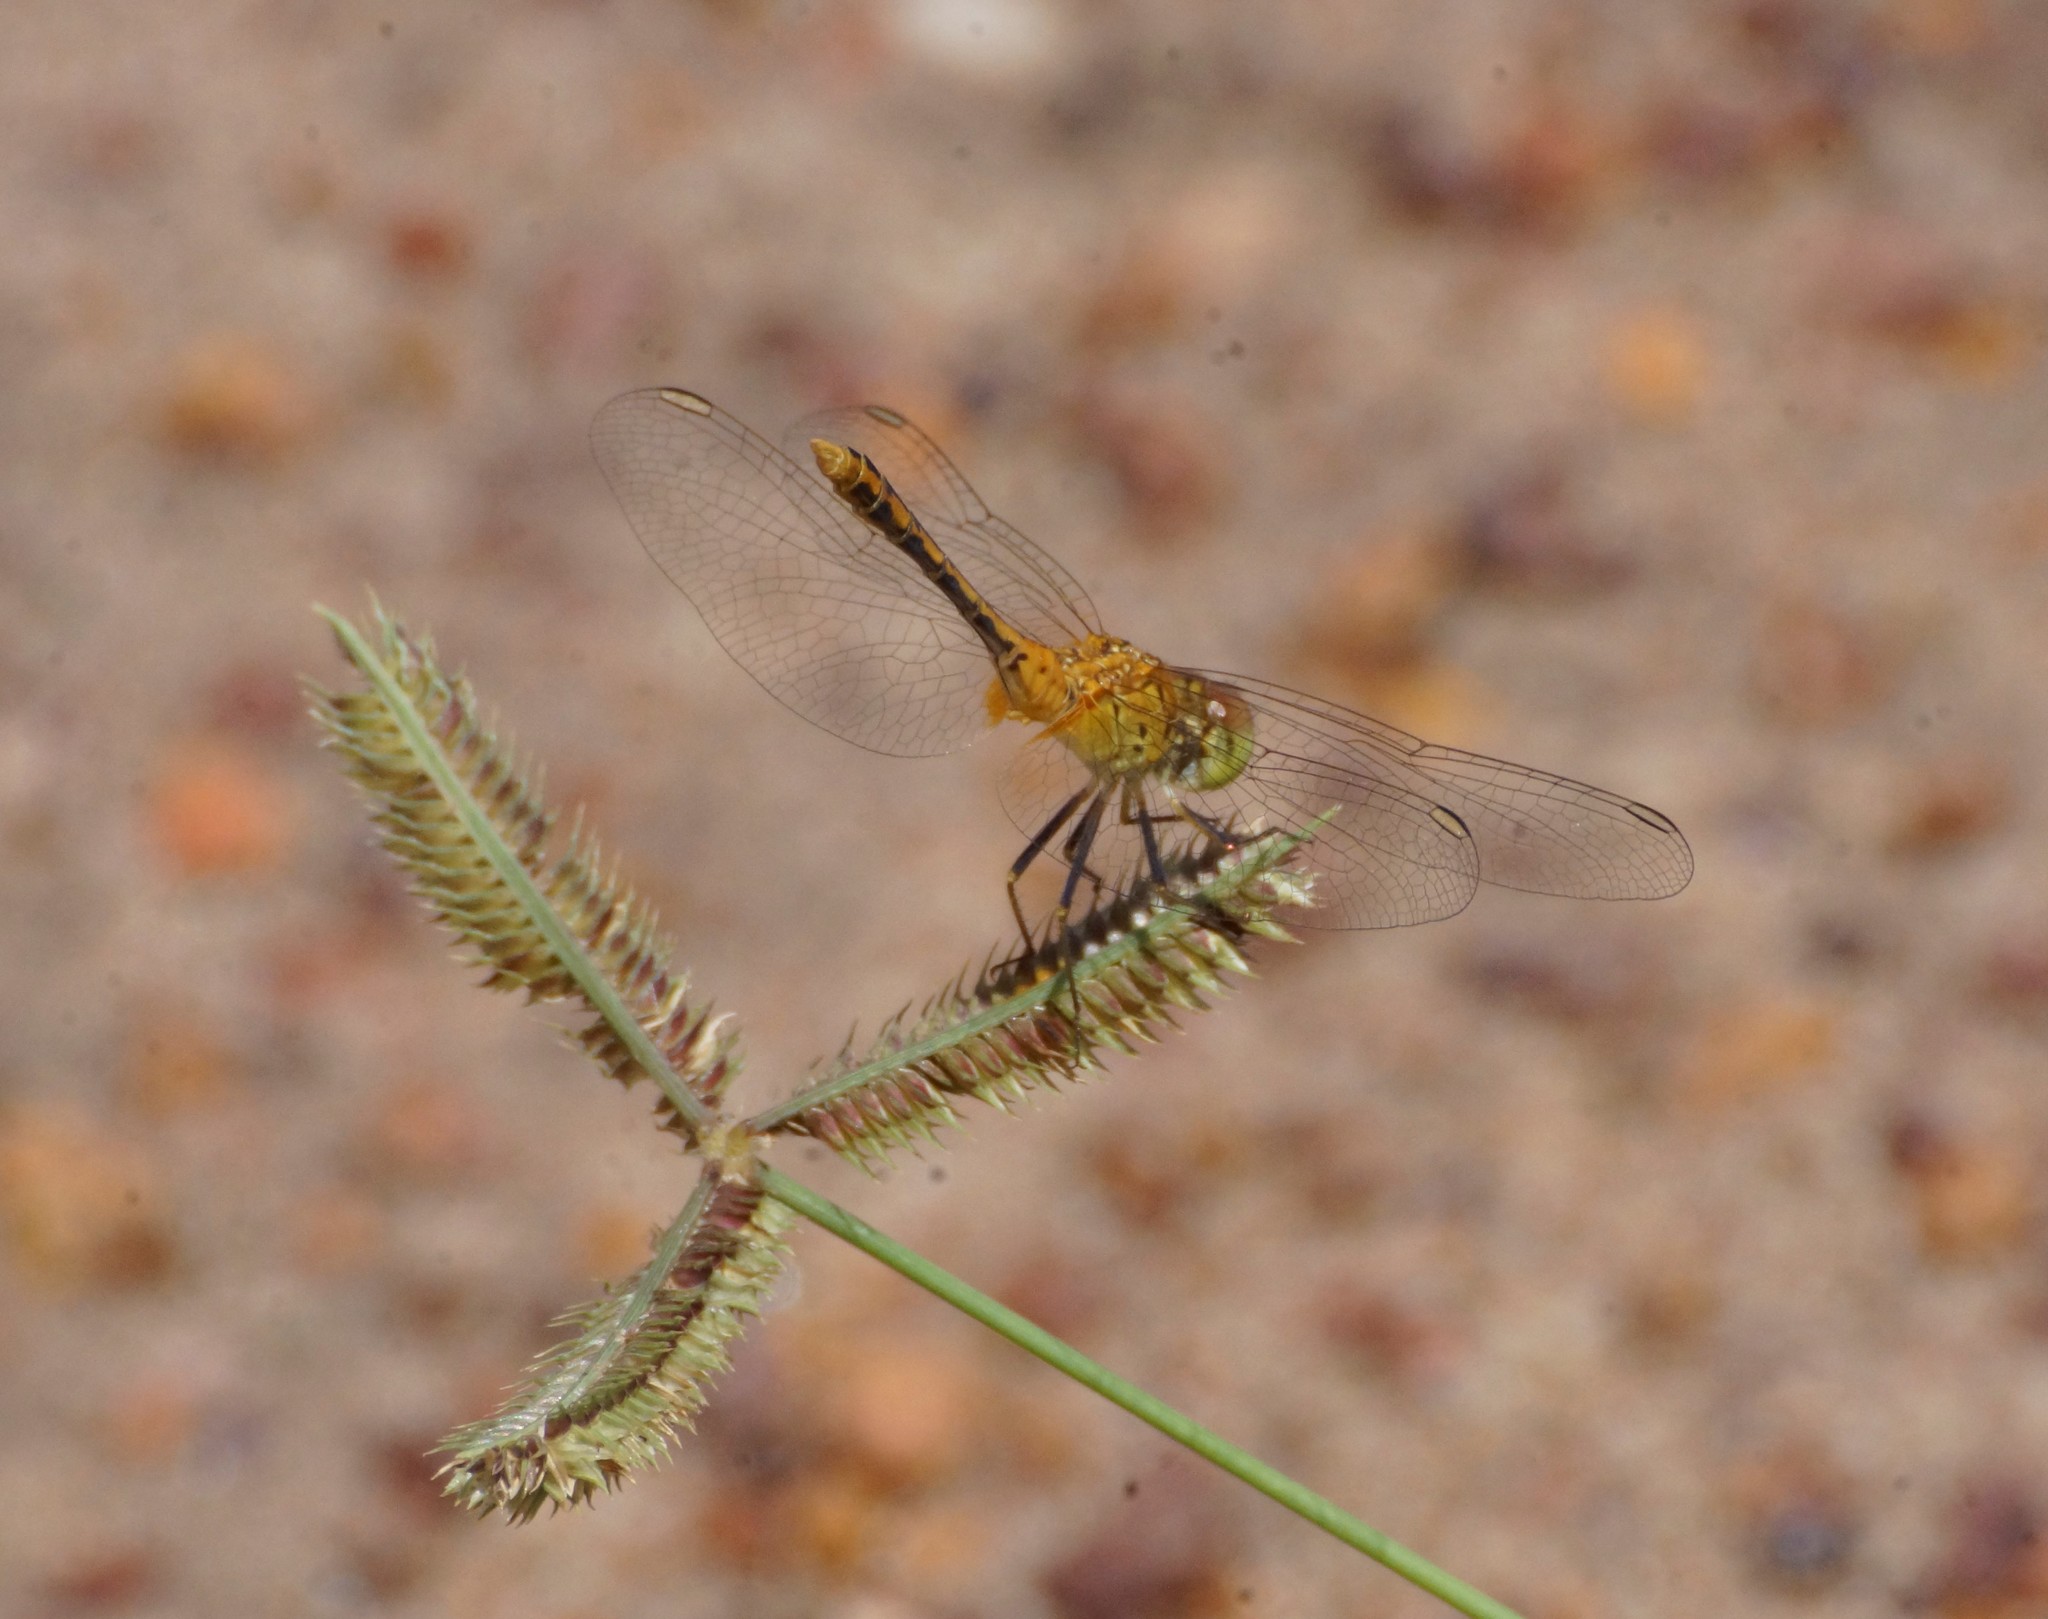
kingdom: Animalia
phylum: Arthropoda
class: Insecta
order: Odonata
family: Libellulidae
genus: Diplacodes
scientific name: Diplacodes bipunctata
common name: Red percher dragonfly
